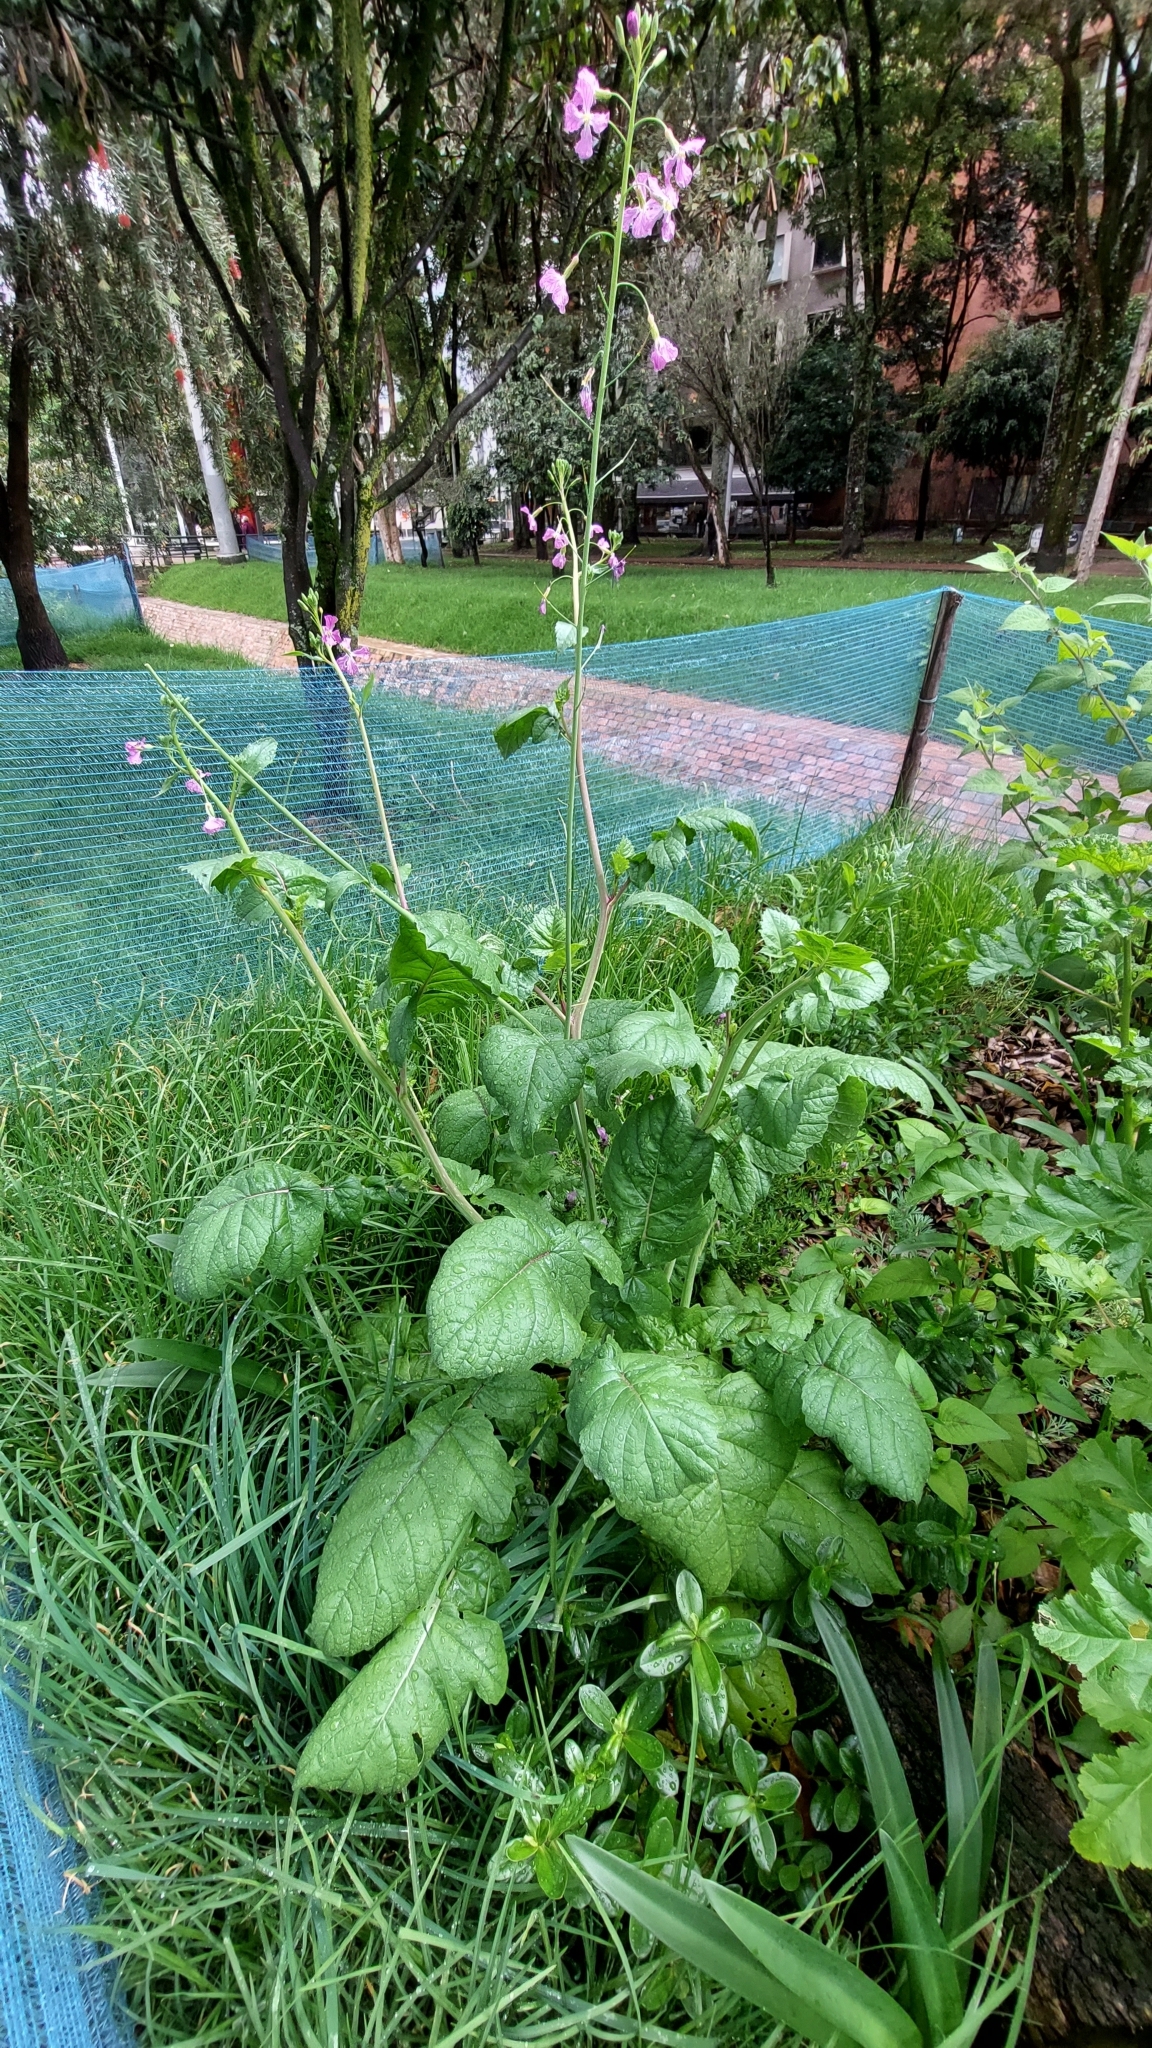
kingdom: Plantae
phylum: Tracheophyta
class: Magnoliopsida
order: Brassicales
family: Brassicaceae
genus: Raphanus
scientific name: Raphanus sativus
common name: Cultivated radish
